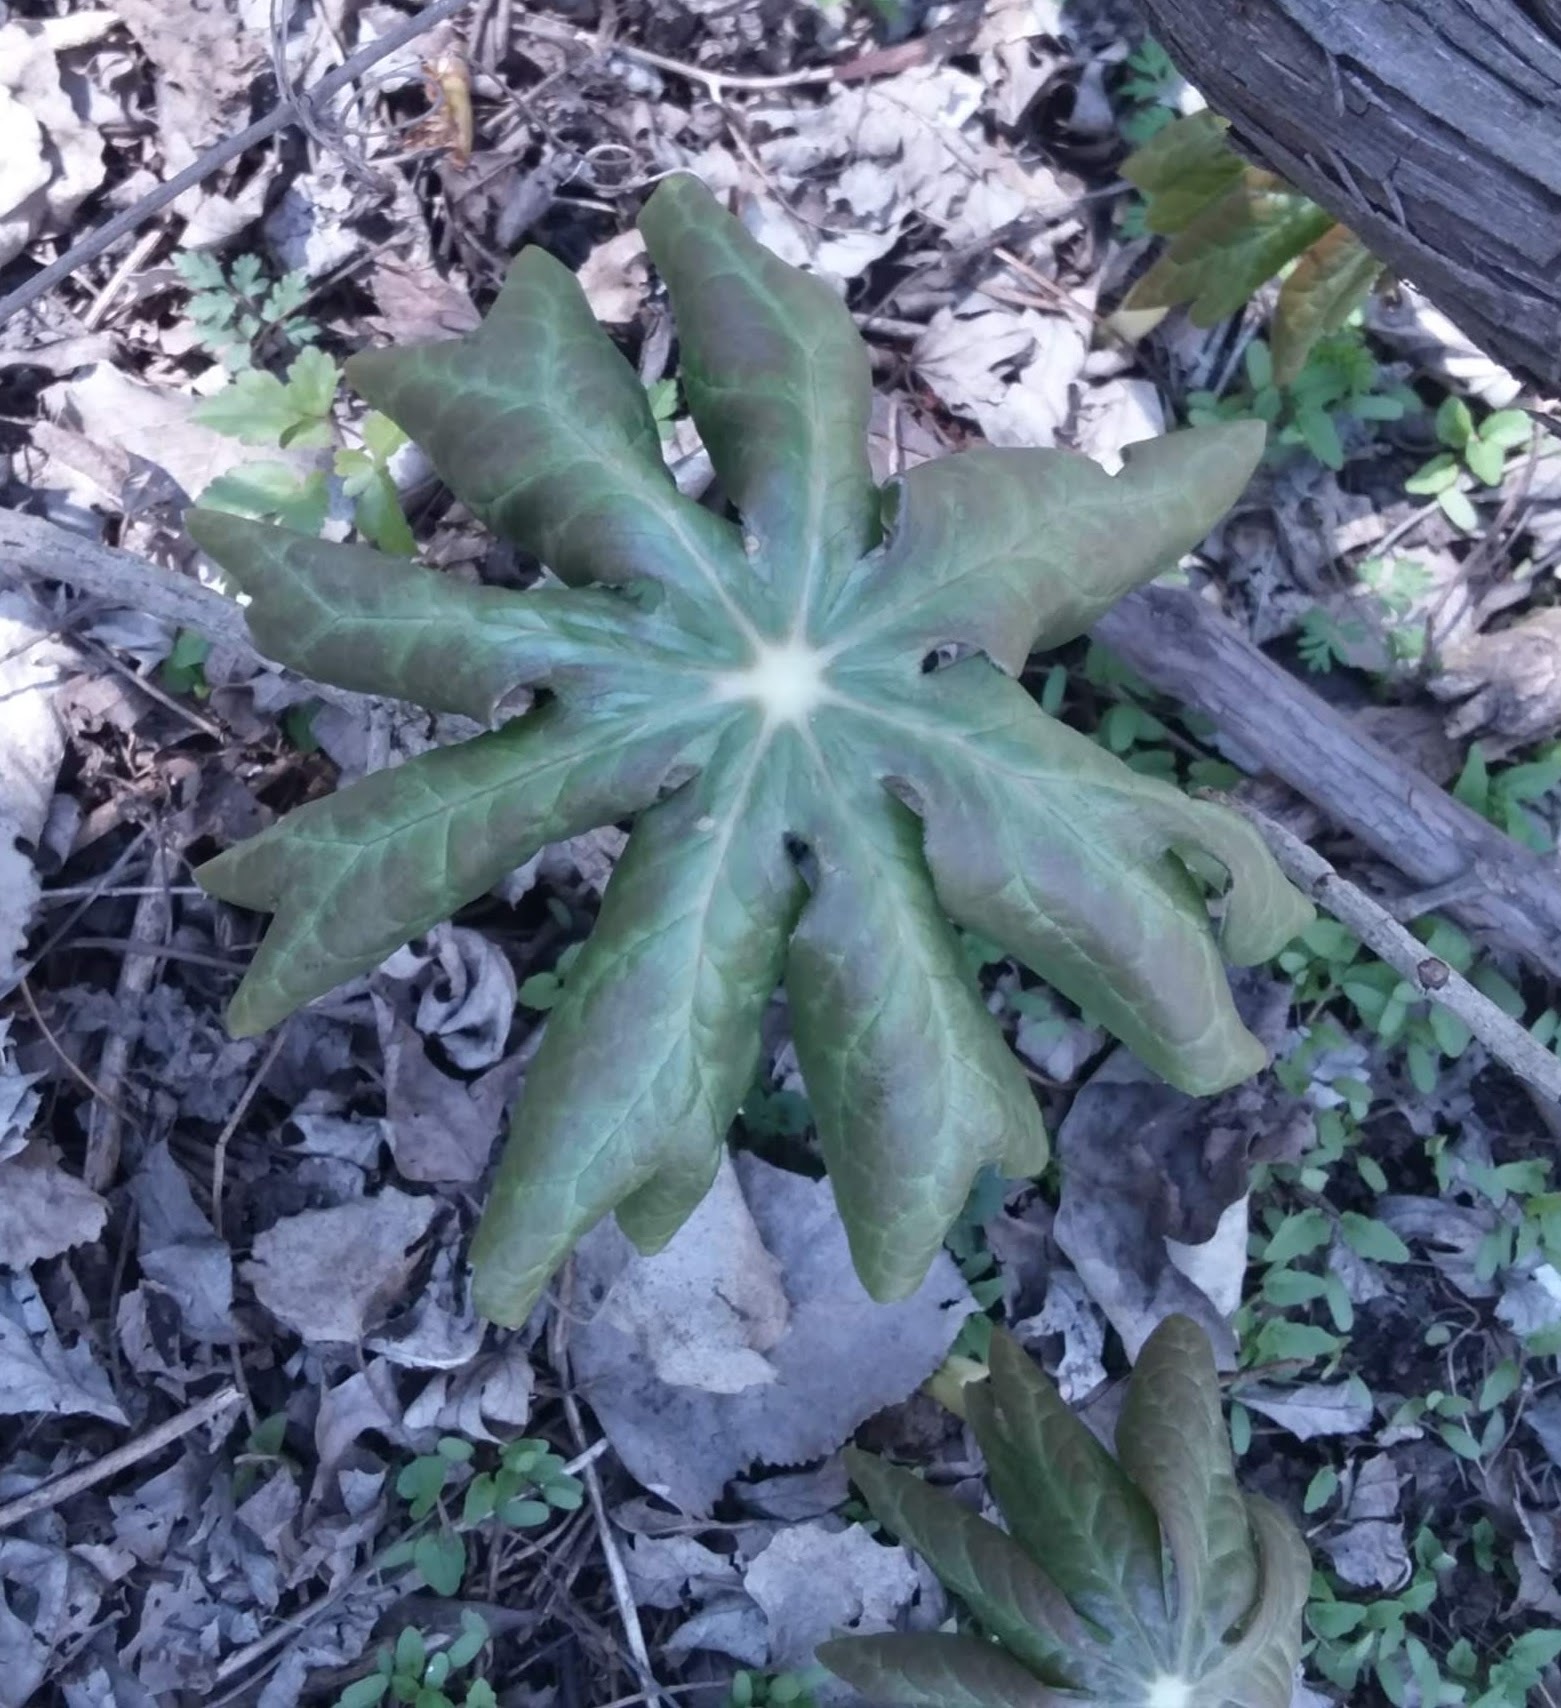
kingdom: Plantae
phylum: Tracheophyta
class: Magnoliopsida
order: Ranunculales
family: Berberidaceae
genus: Podophyllum
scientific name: Podophyllum peltatum
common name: Wild mandrake
